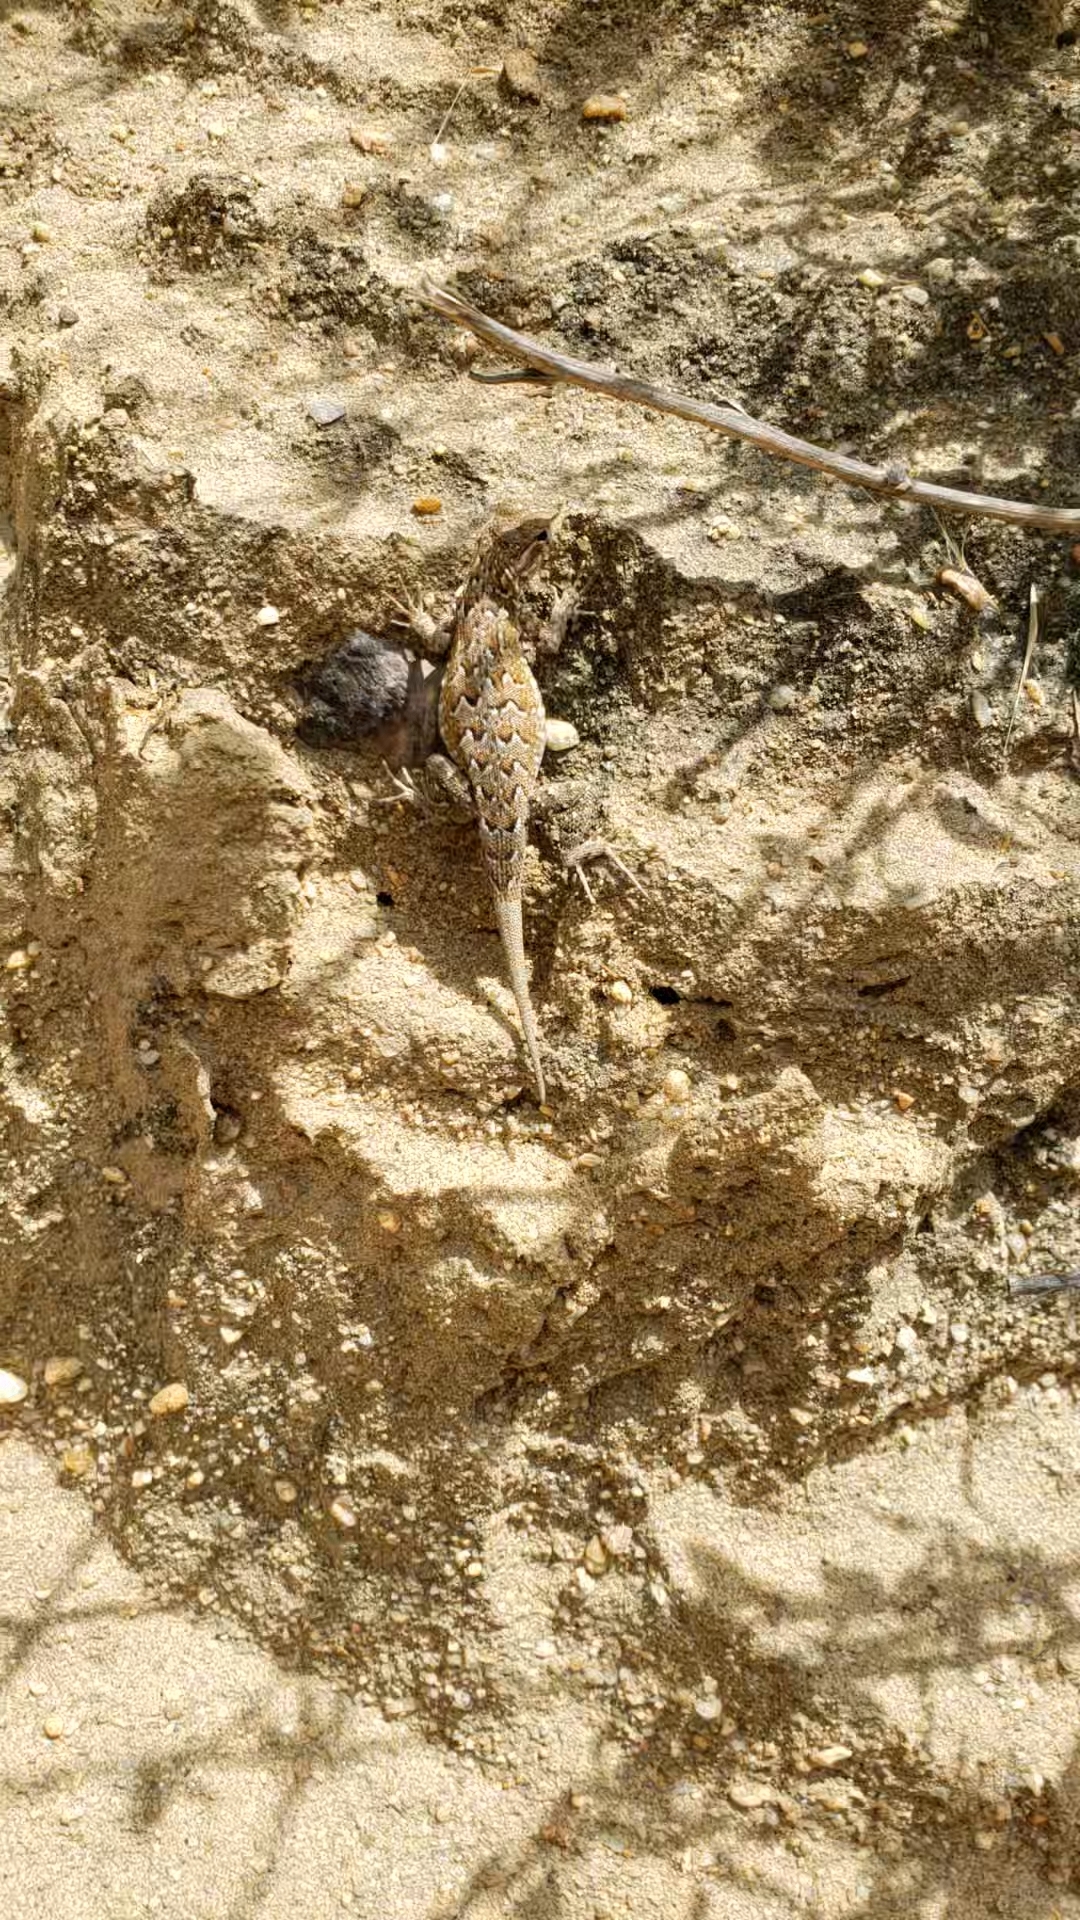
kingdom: Animalia
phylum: Chordata
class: Squamata
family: Phrynosomatidae
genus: Uta
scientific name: Uta stansburiana
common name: Side-blotched lizard
